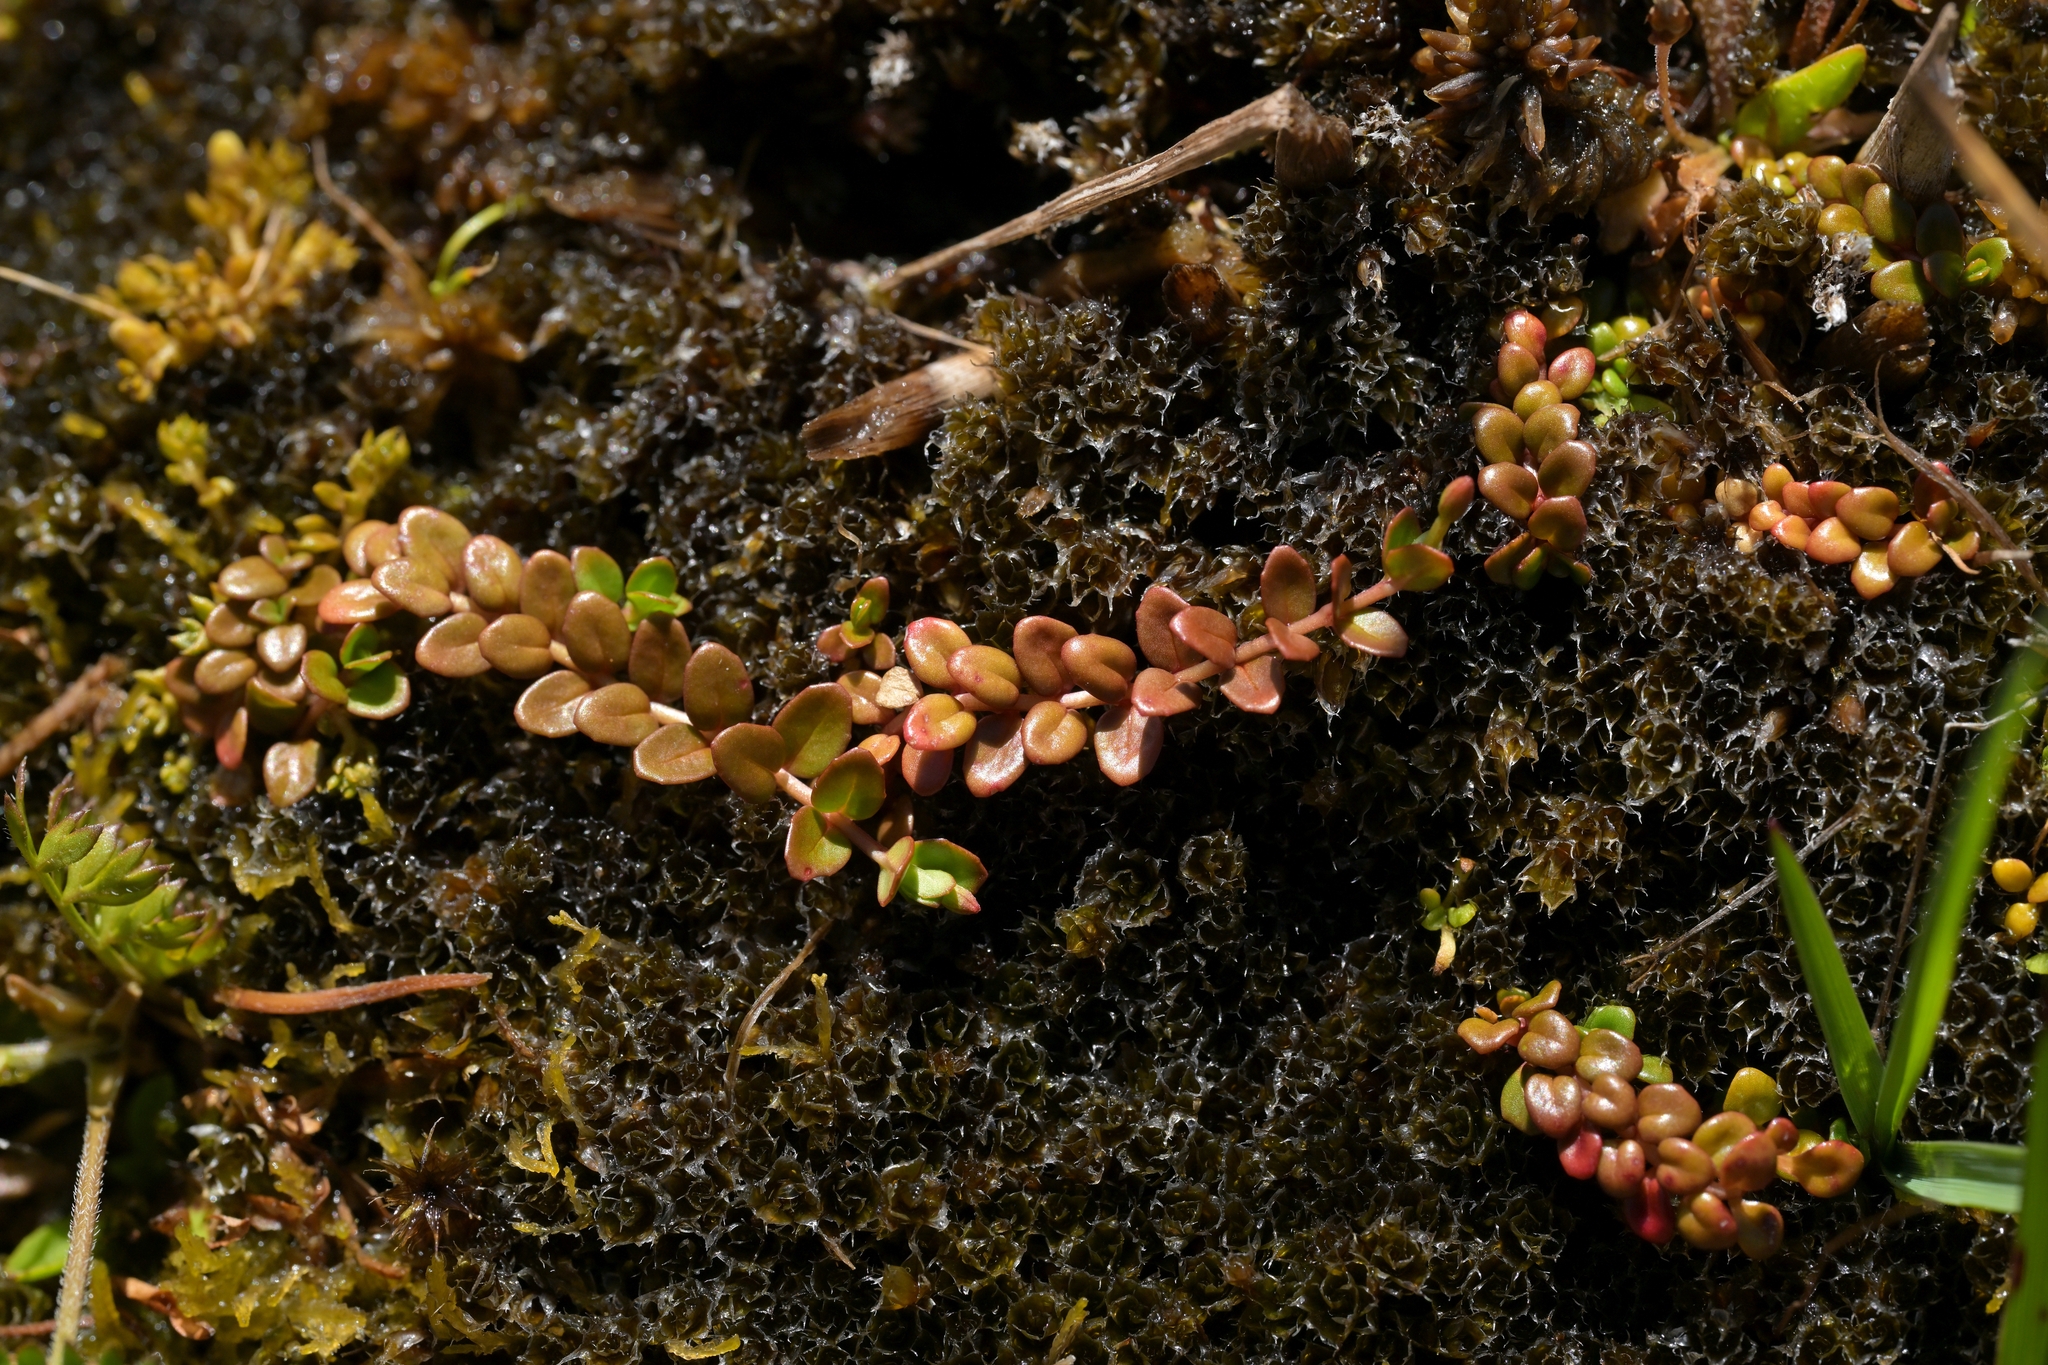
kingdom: Plantae
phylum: Tracheophyta
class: Magnoliopsida
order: Myrtales
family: Onagraceae
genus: Epilobium
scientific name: Epilobium brunnescens
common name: New zealand willowherb
